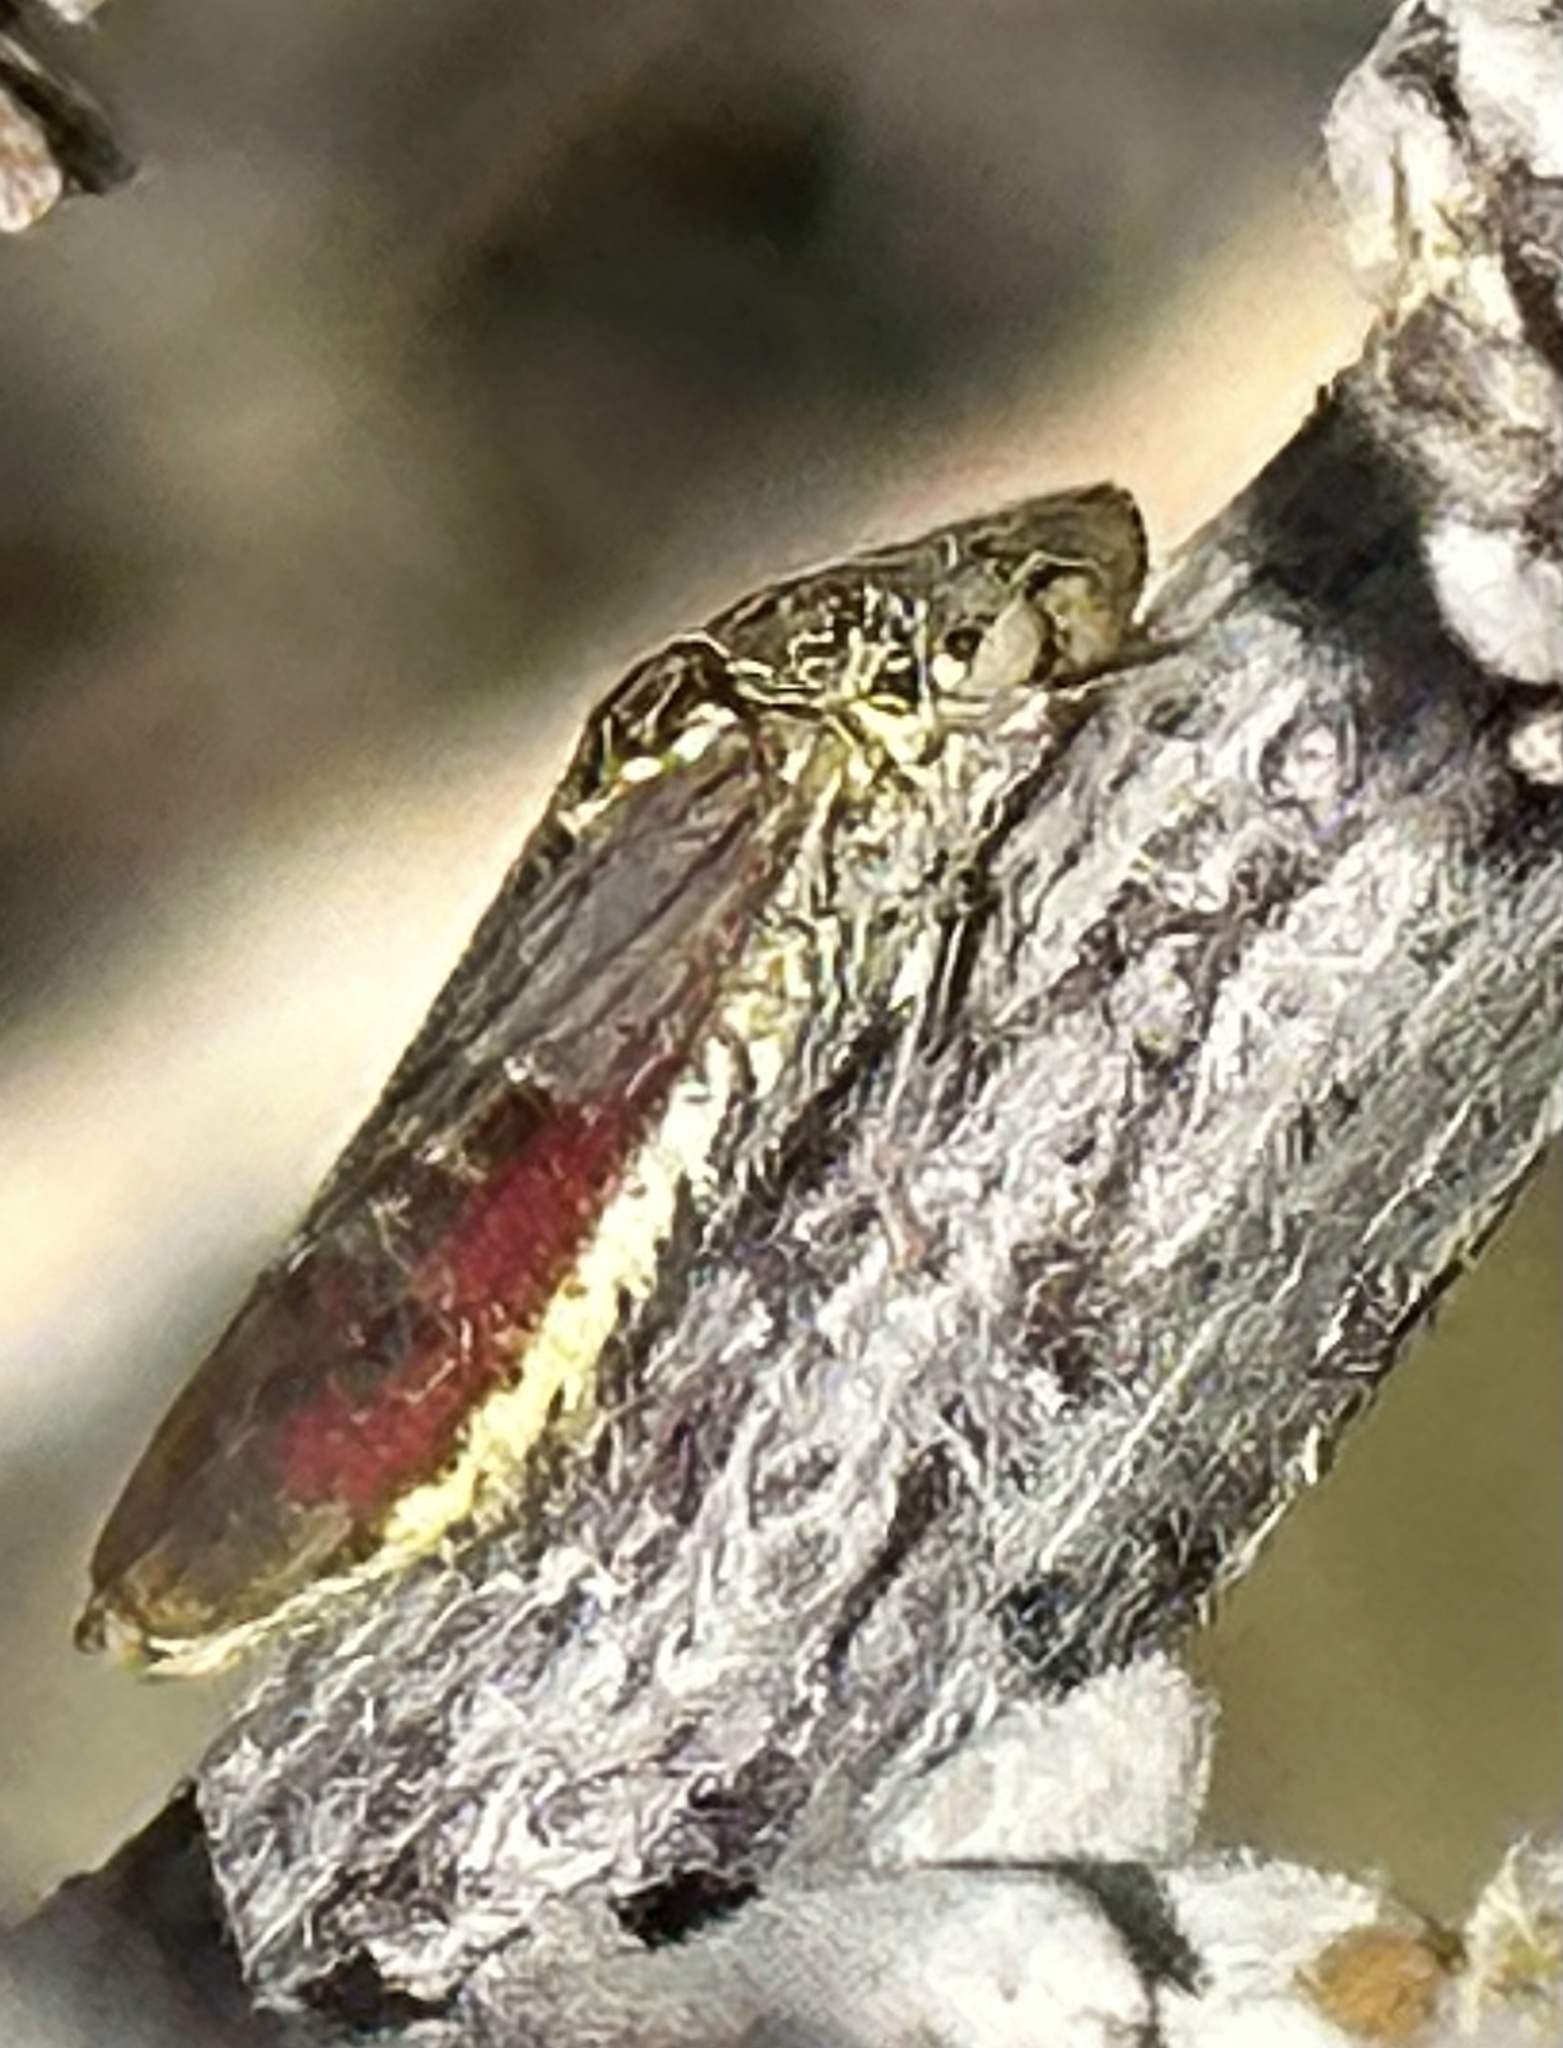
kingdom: Animalia
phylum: Arthropoda
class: Insecta
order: Hemiptera
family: Cicadellidae
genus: Homalodisca
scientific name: Homalodisca liturata
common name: Lacertate sharpshooter
